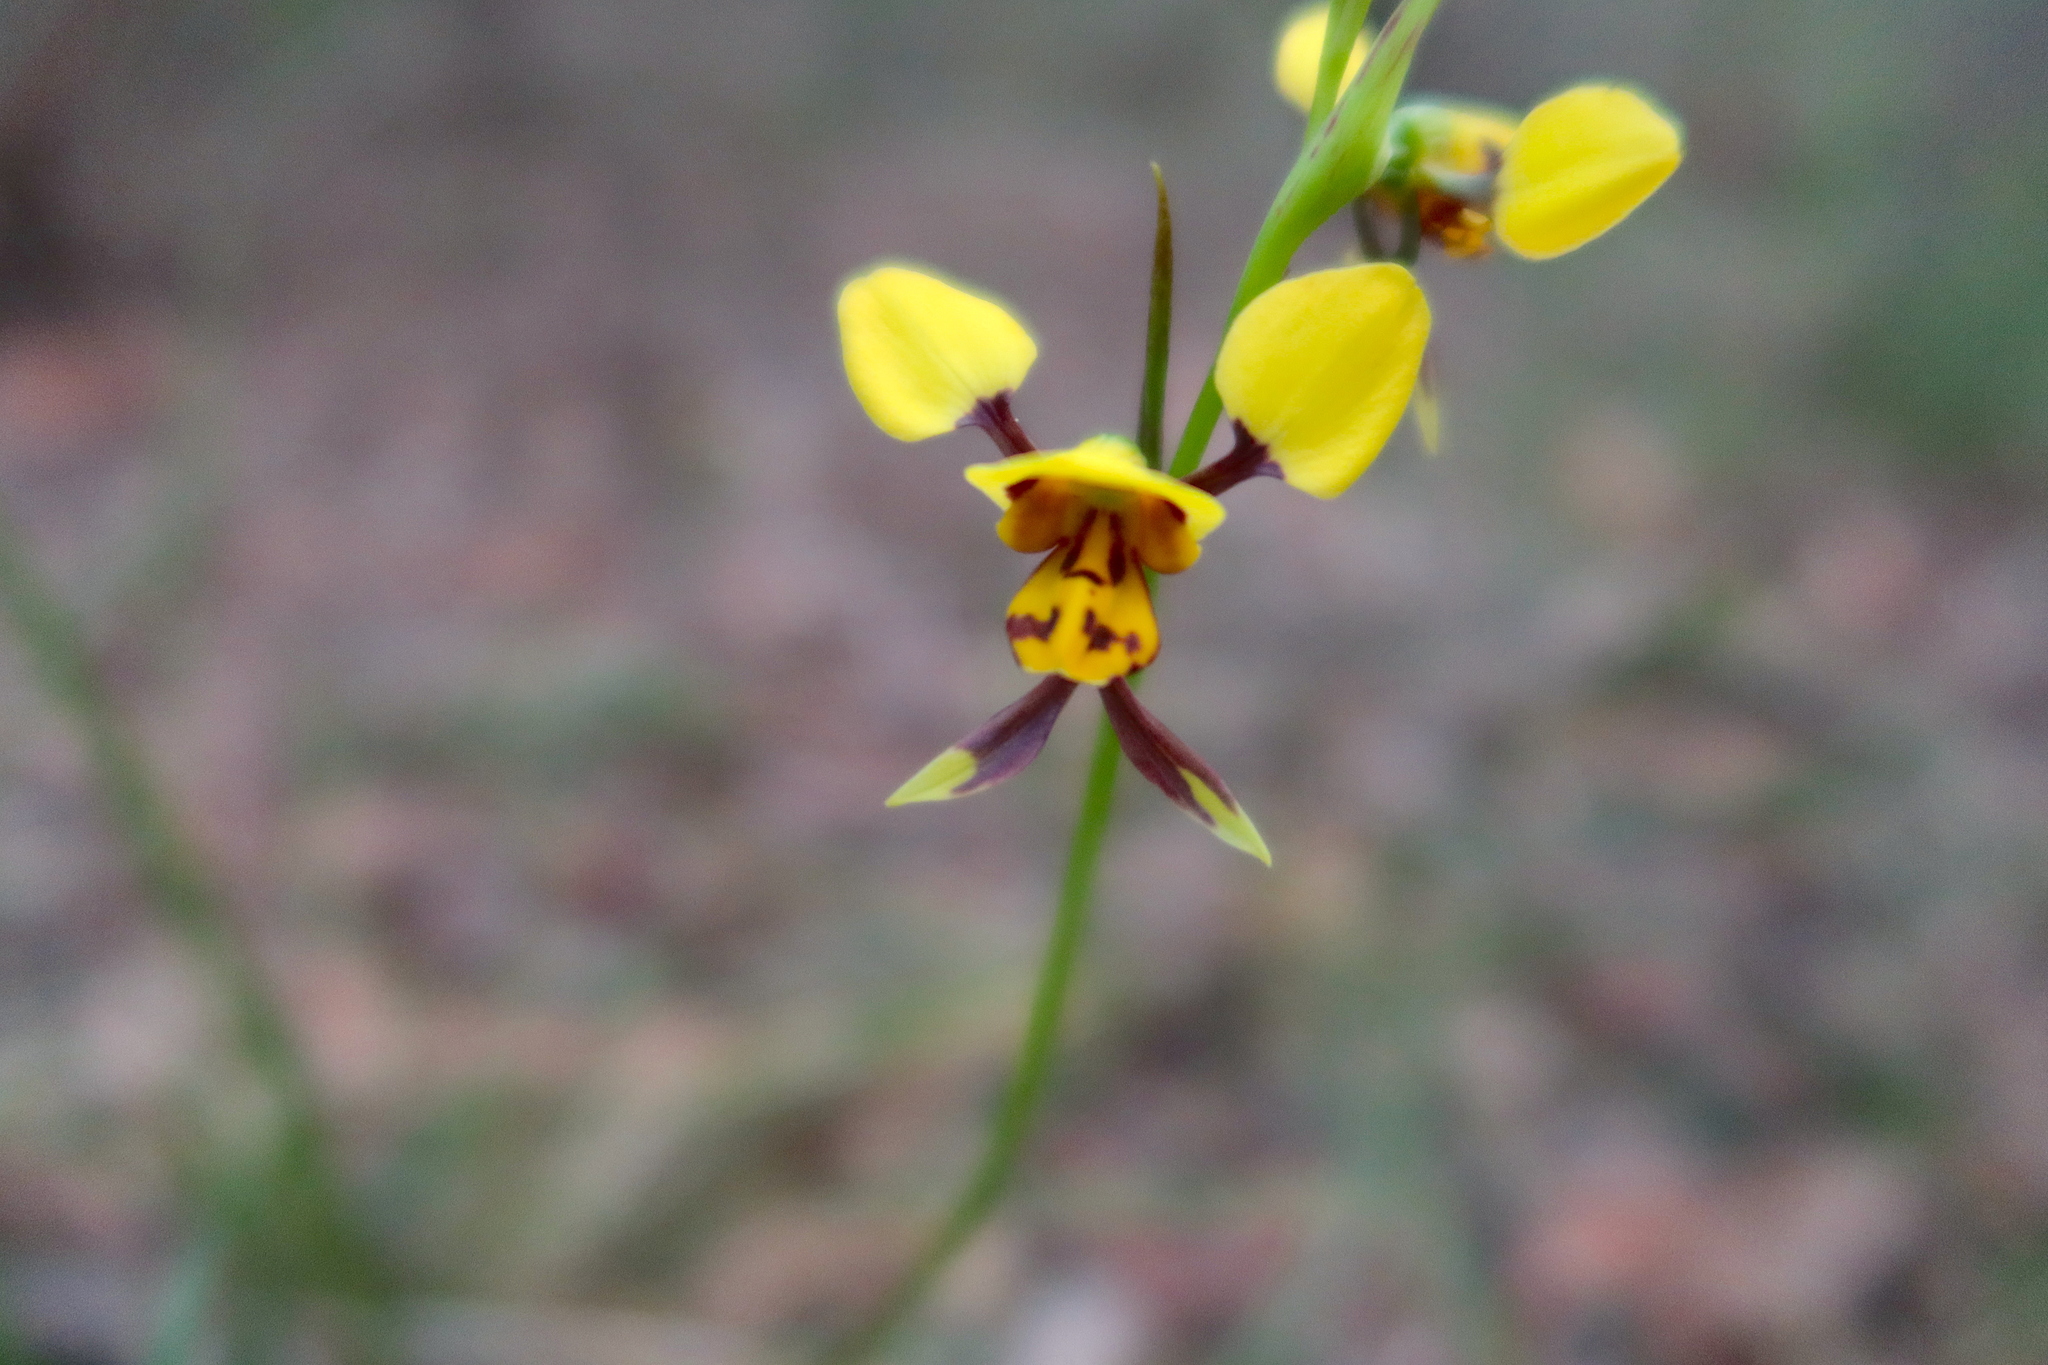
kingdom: Plantae
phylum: Tracheophyta
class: Liliopsida
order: Asparagales
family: Orchidaceae
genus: Diuris
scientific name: Diuris sulphurea
